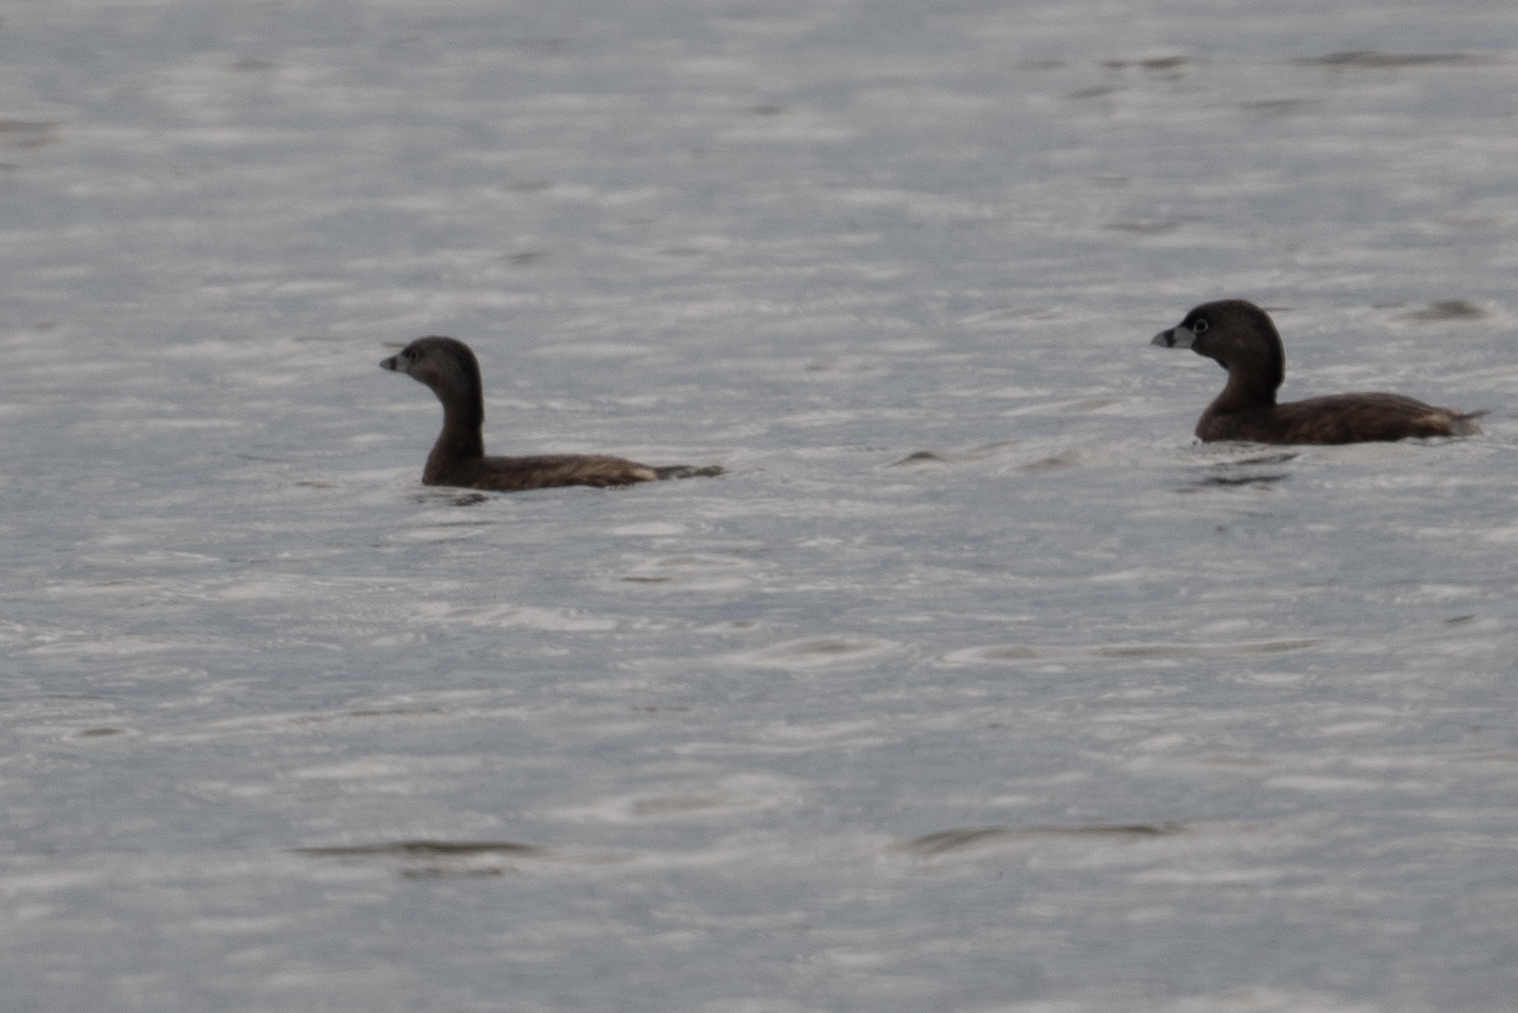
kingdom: Animalia
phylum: Chordata
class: Aves
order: Podicipediformes
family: Podicipedidae
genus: Podilymbus
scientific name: Podilymbus podiceps
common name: Pied-billed grebe
